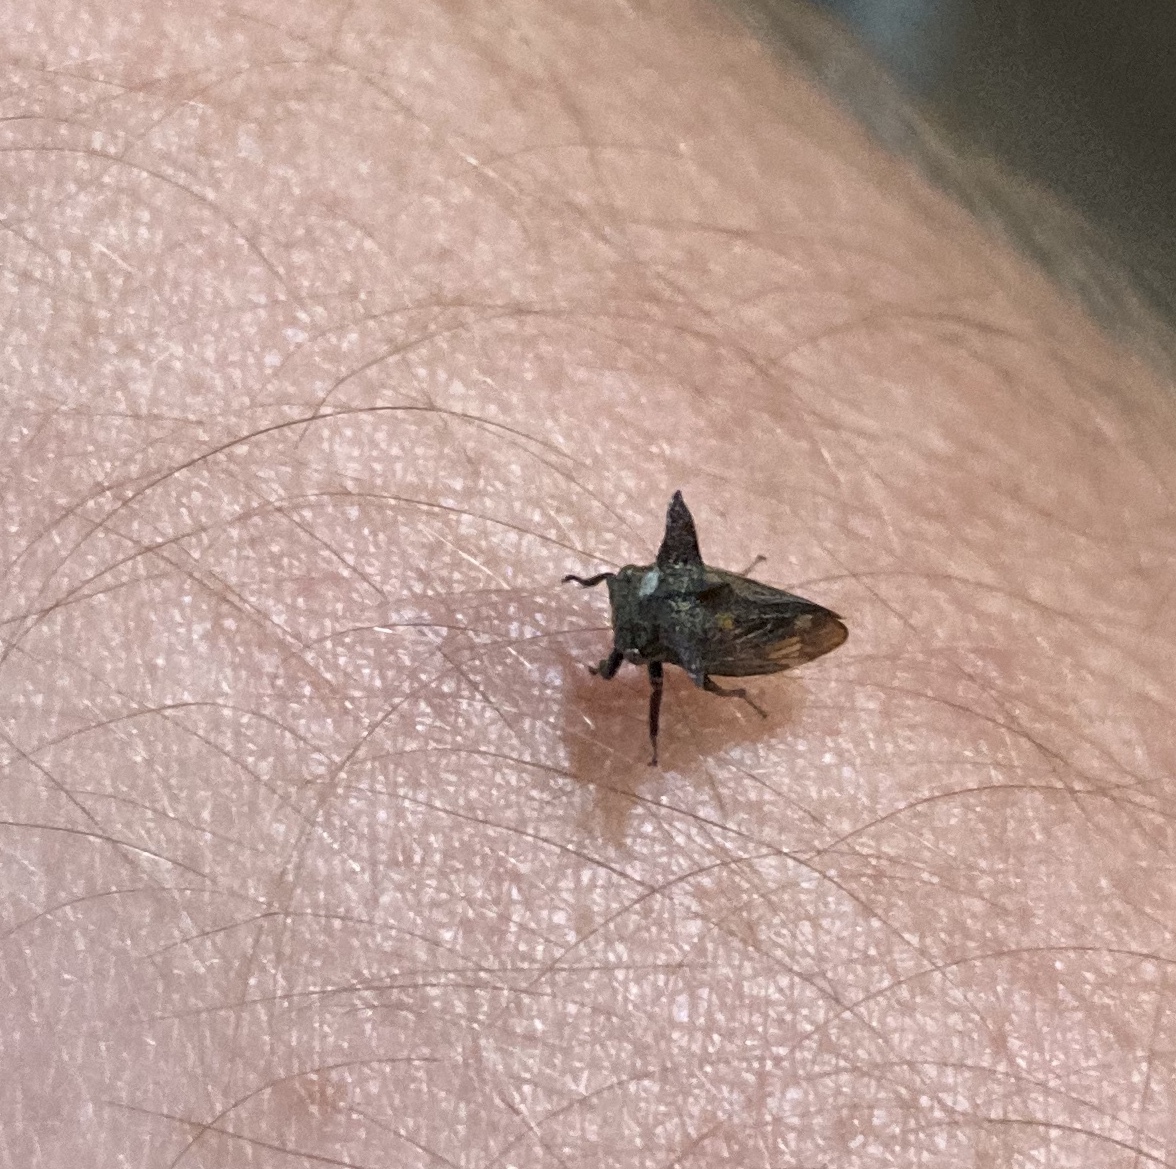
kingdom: Animalia
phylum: Arthropoda
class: Insecta
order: Hemiptera
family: Membracidae
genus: Acanthuchus
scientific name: Acanthuchus trispinifer
